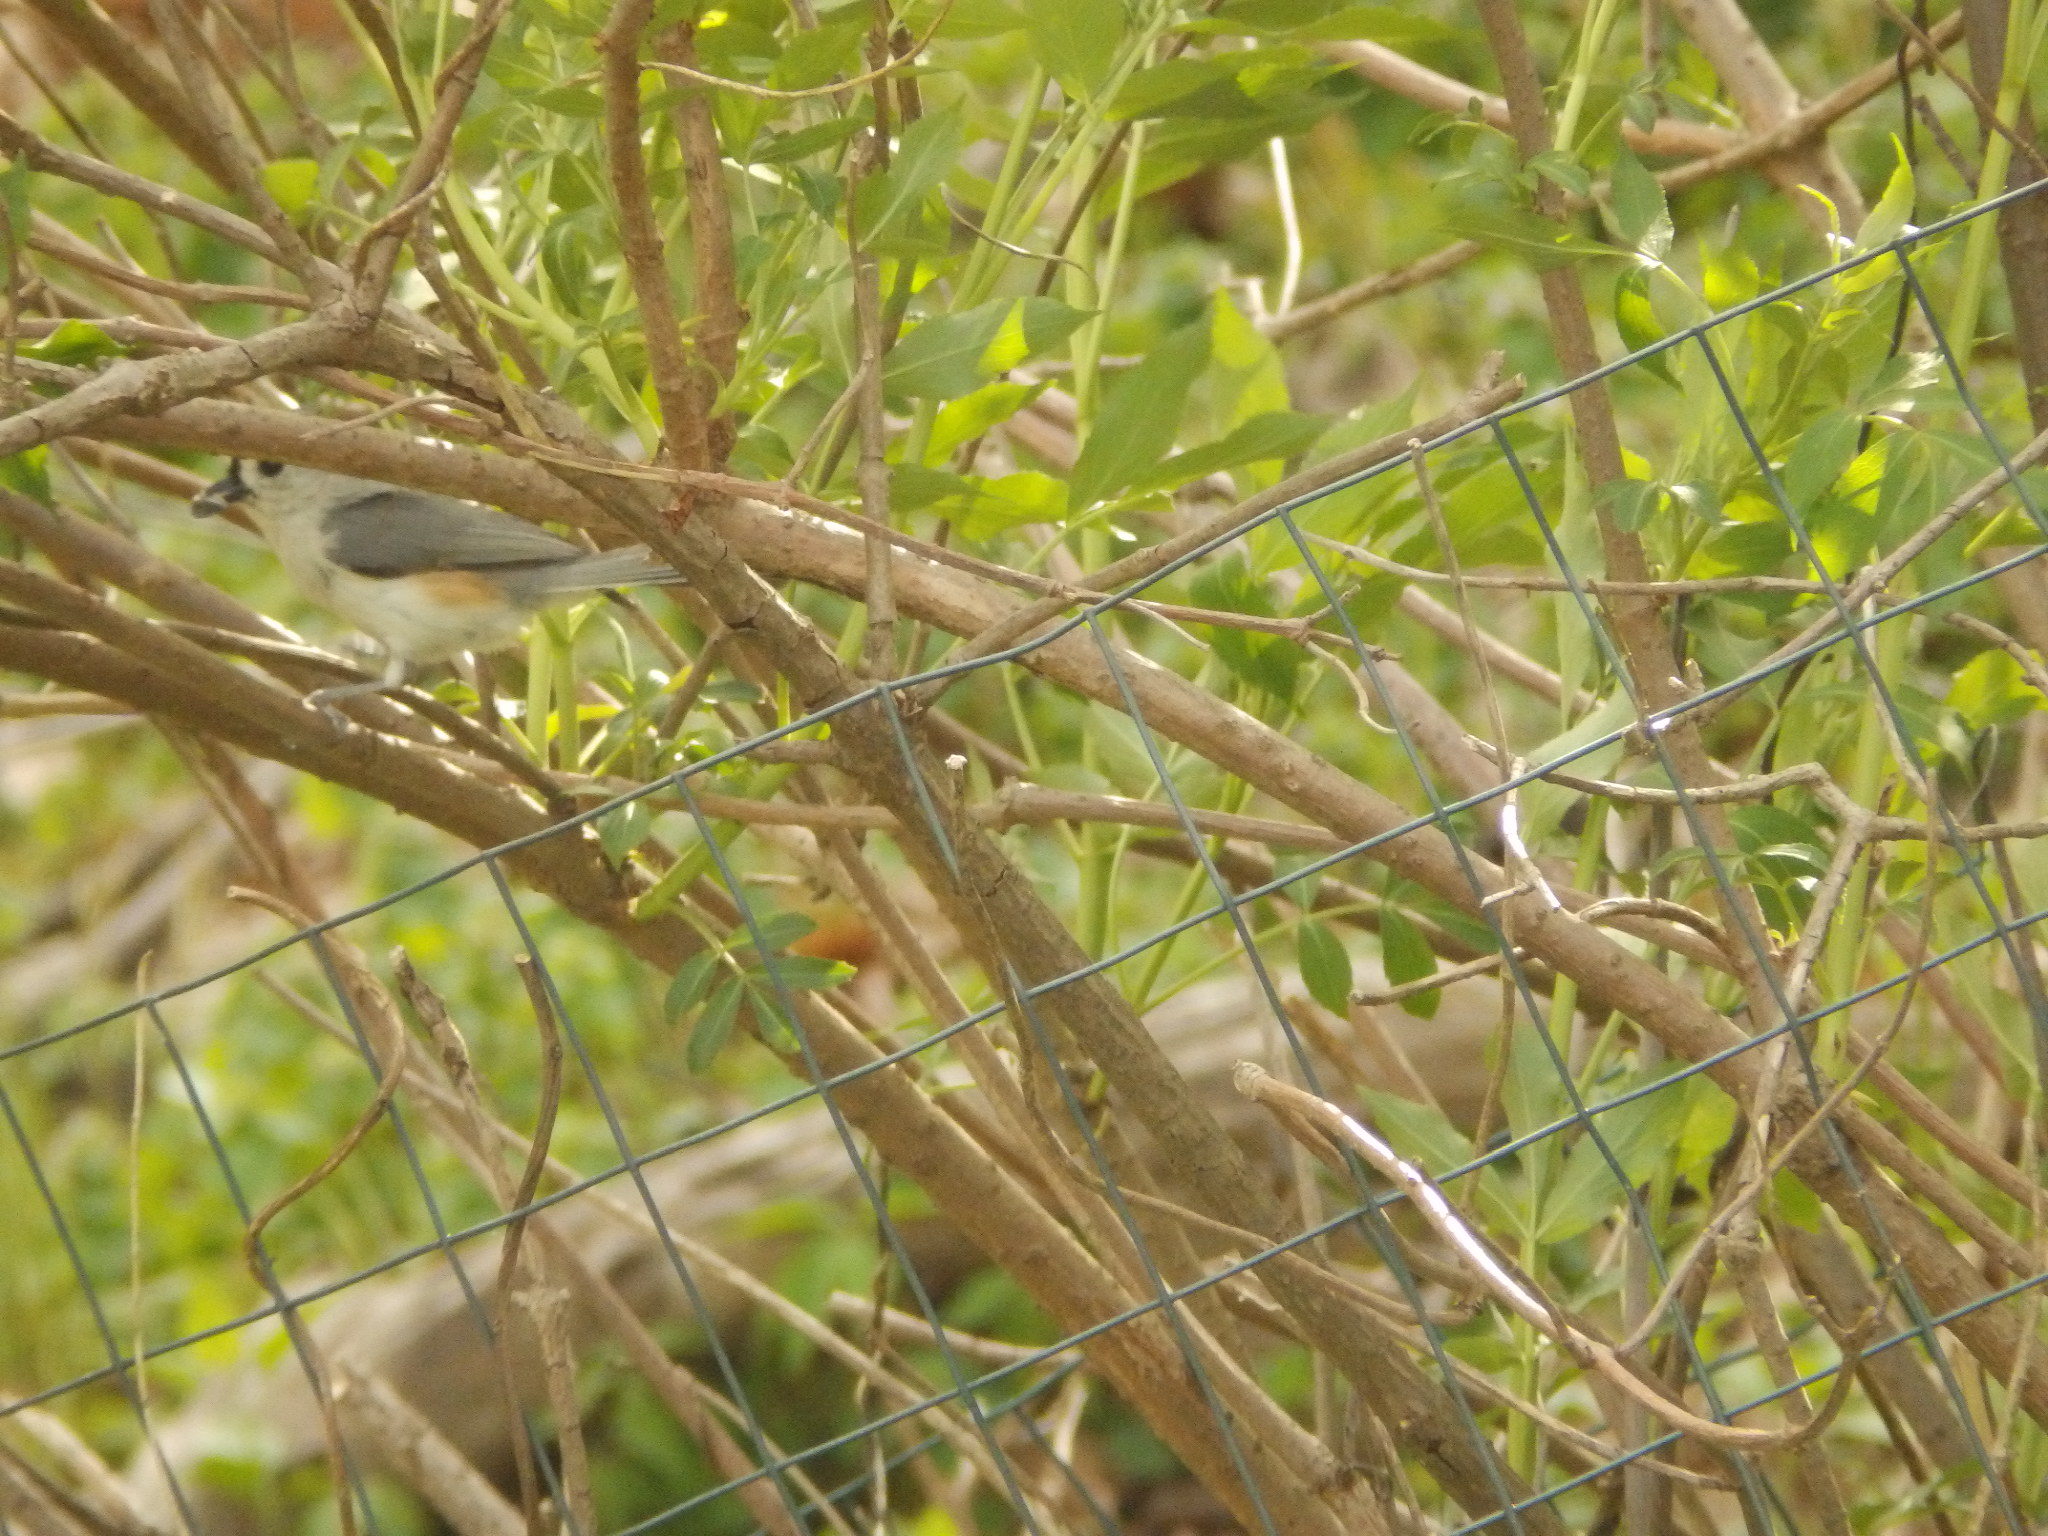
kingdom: Animalia
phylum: Chordata
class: Aves
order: Passeriformes
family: Paridae
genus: Baeolophus
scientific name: Baeolophus bicolor
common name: Tufted titmouse
